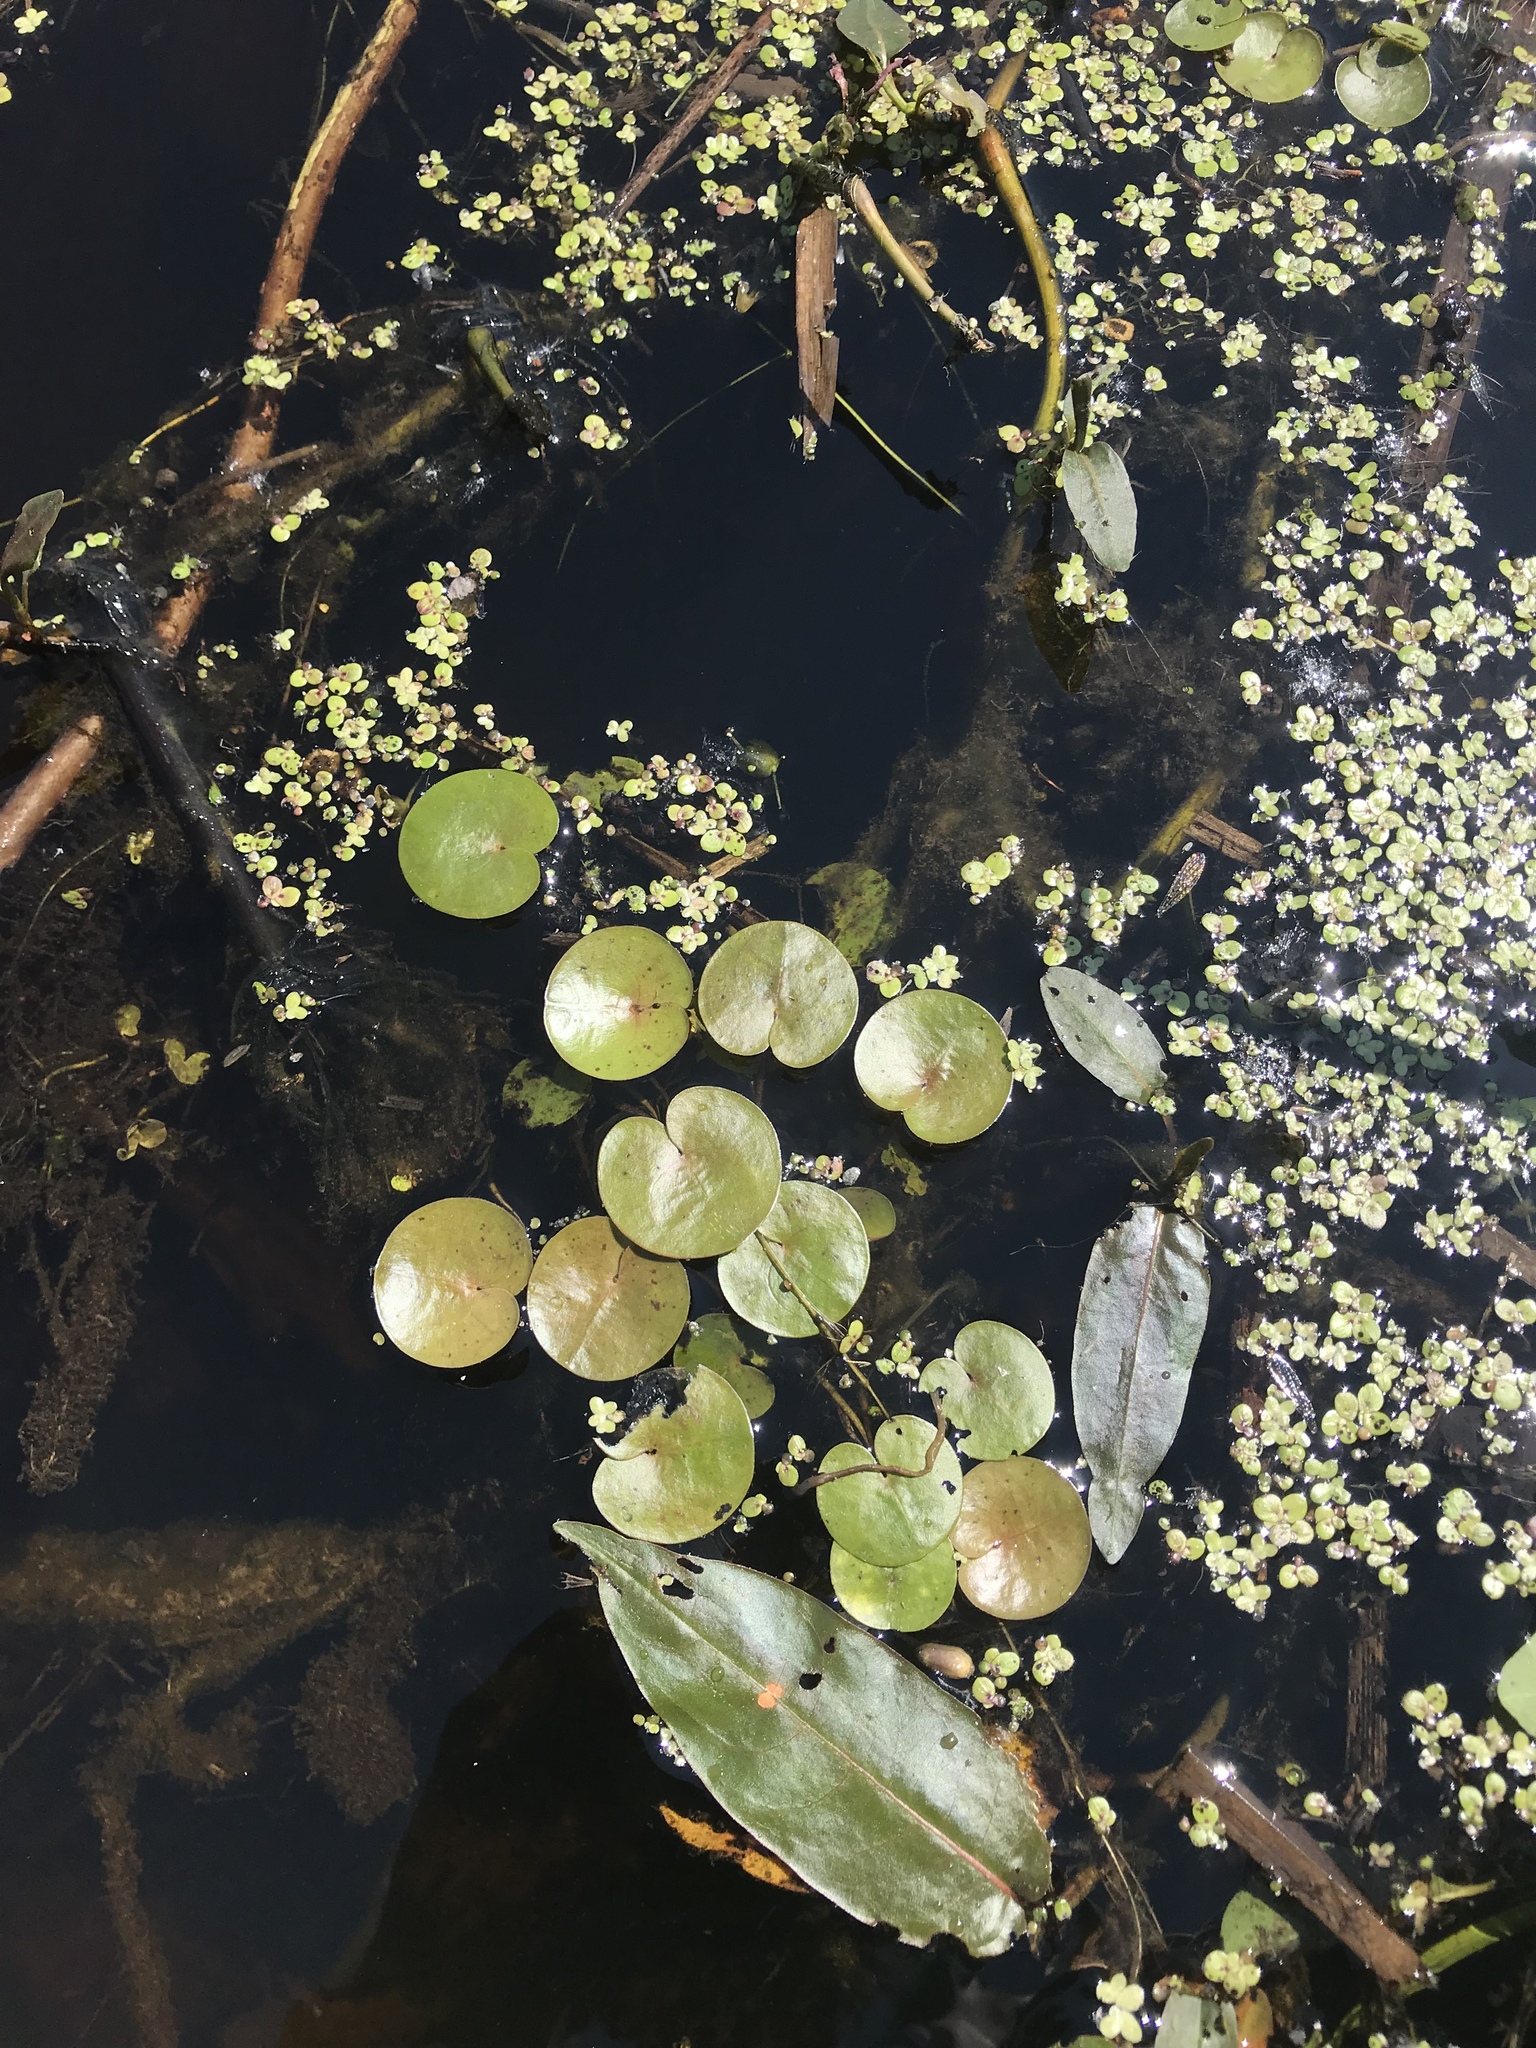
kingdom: Plantae
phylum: Tracheophyta
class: Liliopsida
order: Alismatales
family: Hydrocharitaceae
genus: Hydrocharis
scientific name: Hydrocharis morsus-ranae
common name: Frogbit
